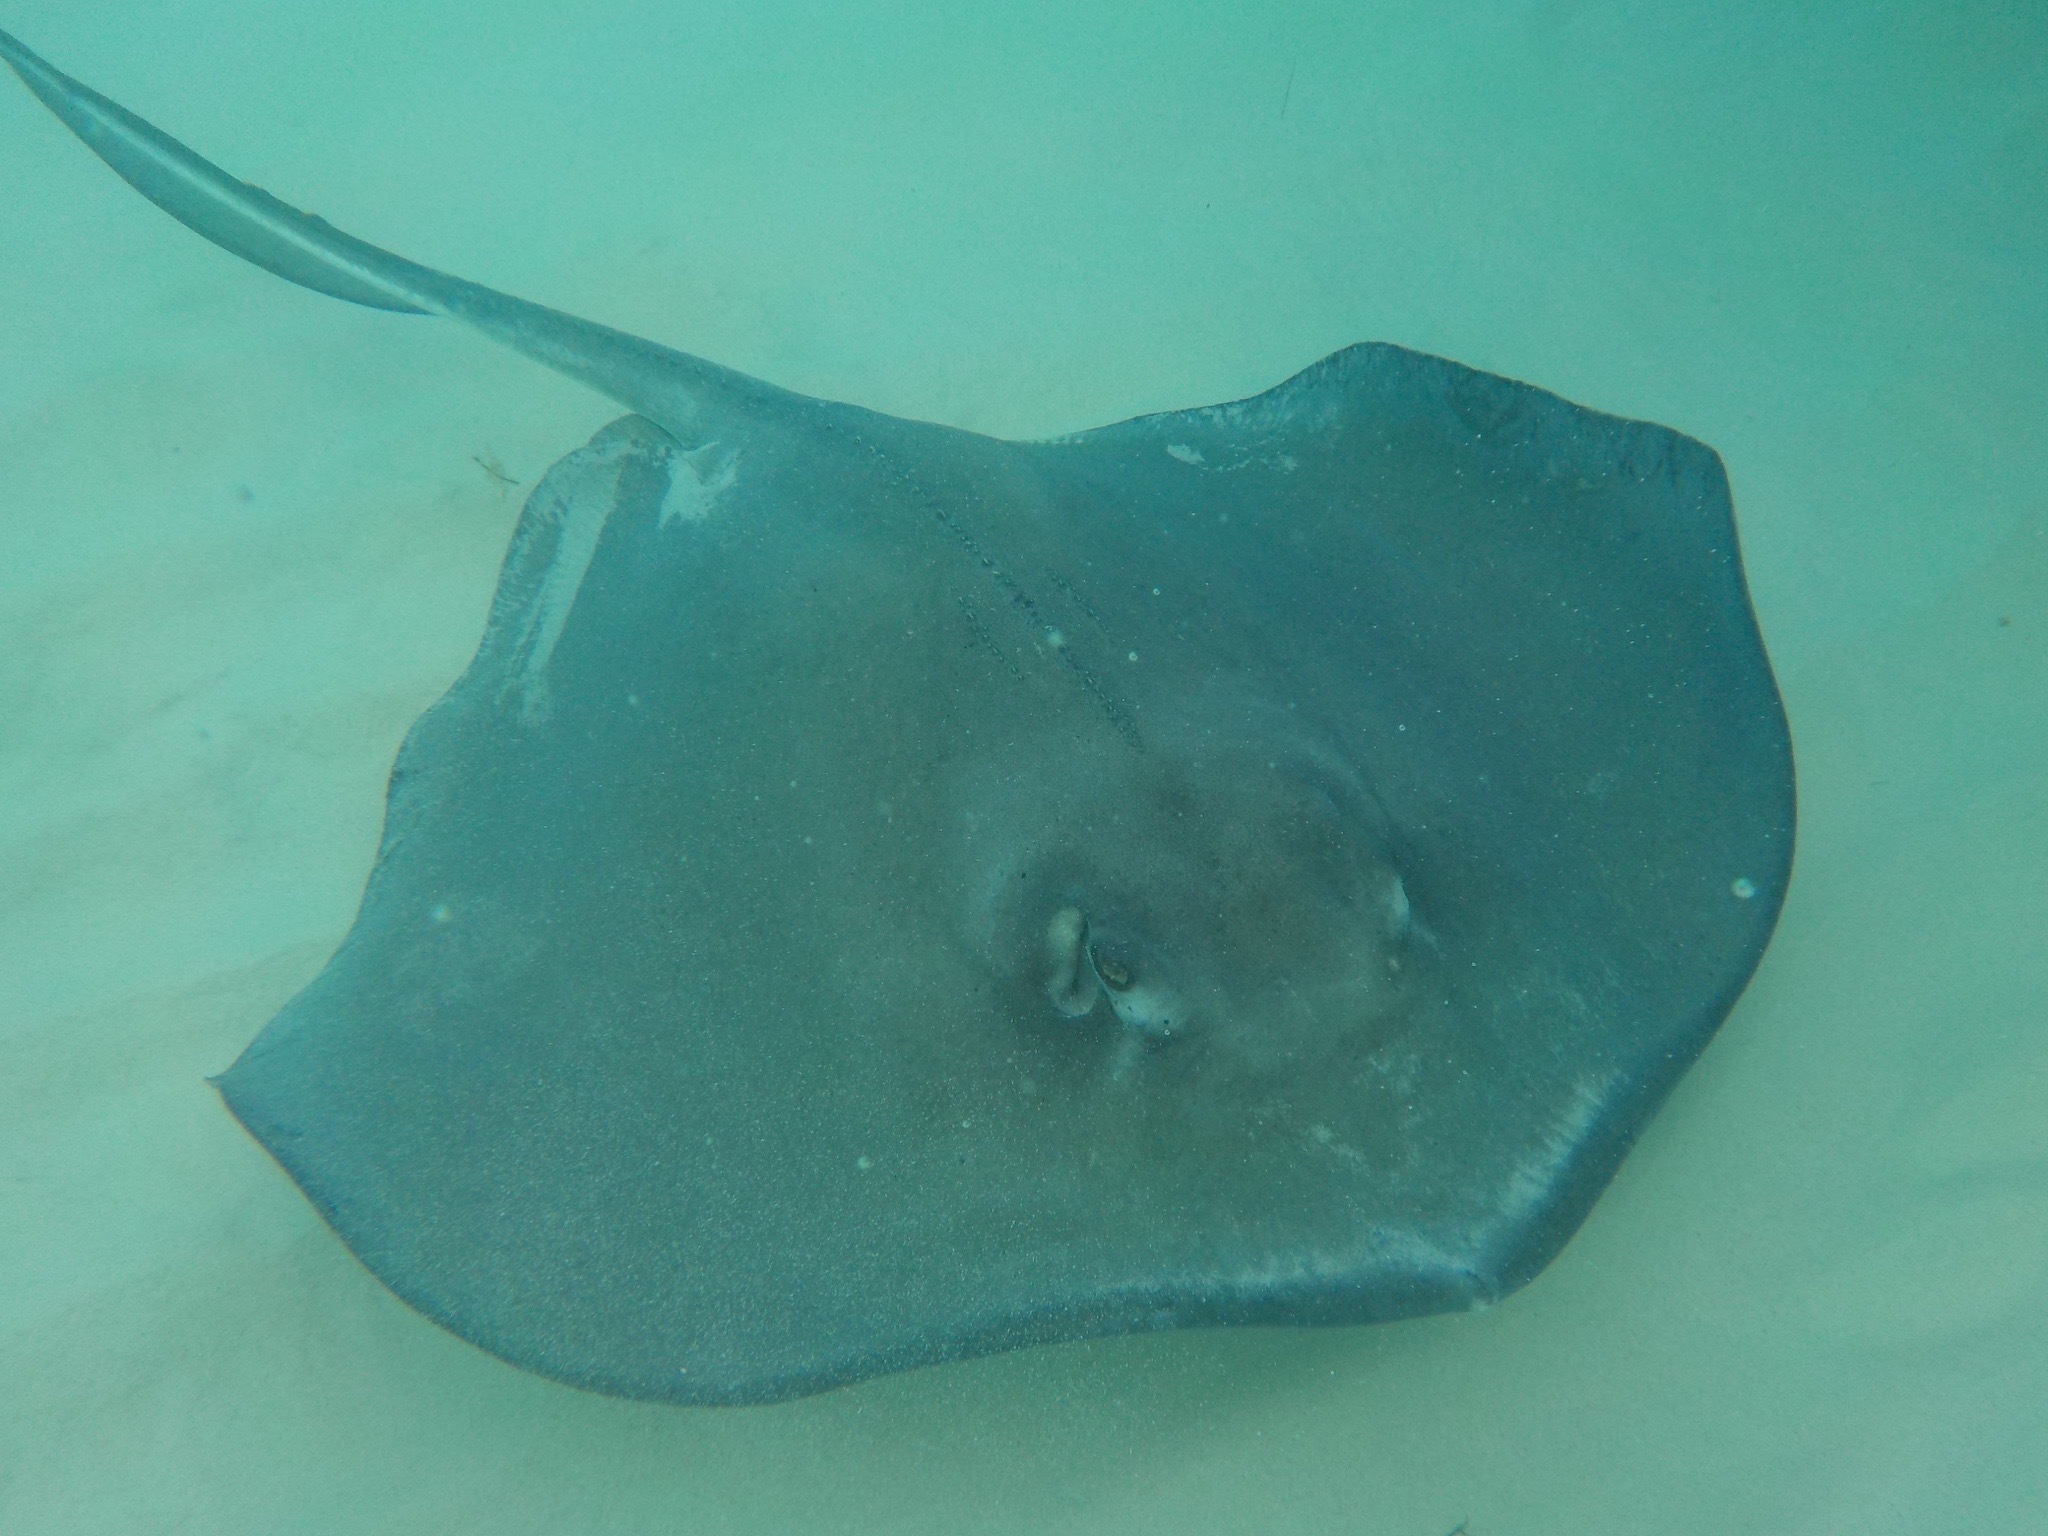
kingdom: Animalia
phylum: Chordata
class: Elasmobranchii
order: Myliobatiformes
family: Dasyatidae
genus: Hypanus
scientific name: Hypanus americanus
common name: Southern stingray
